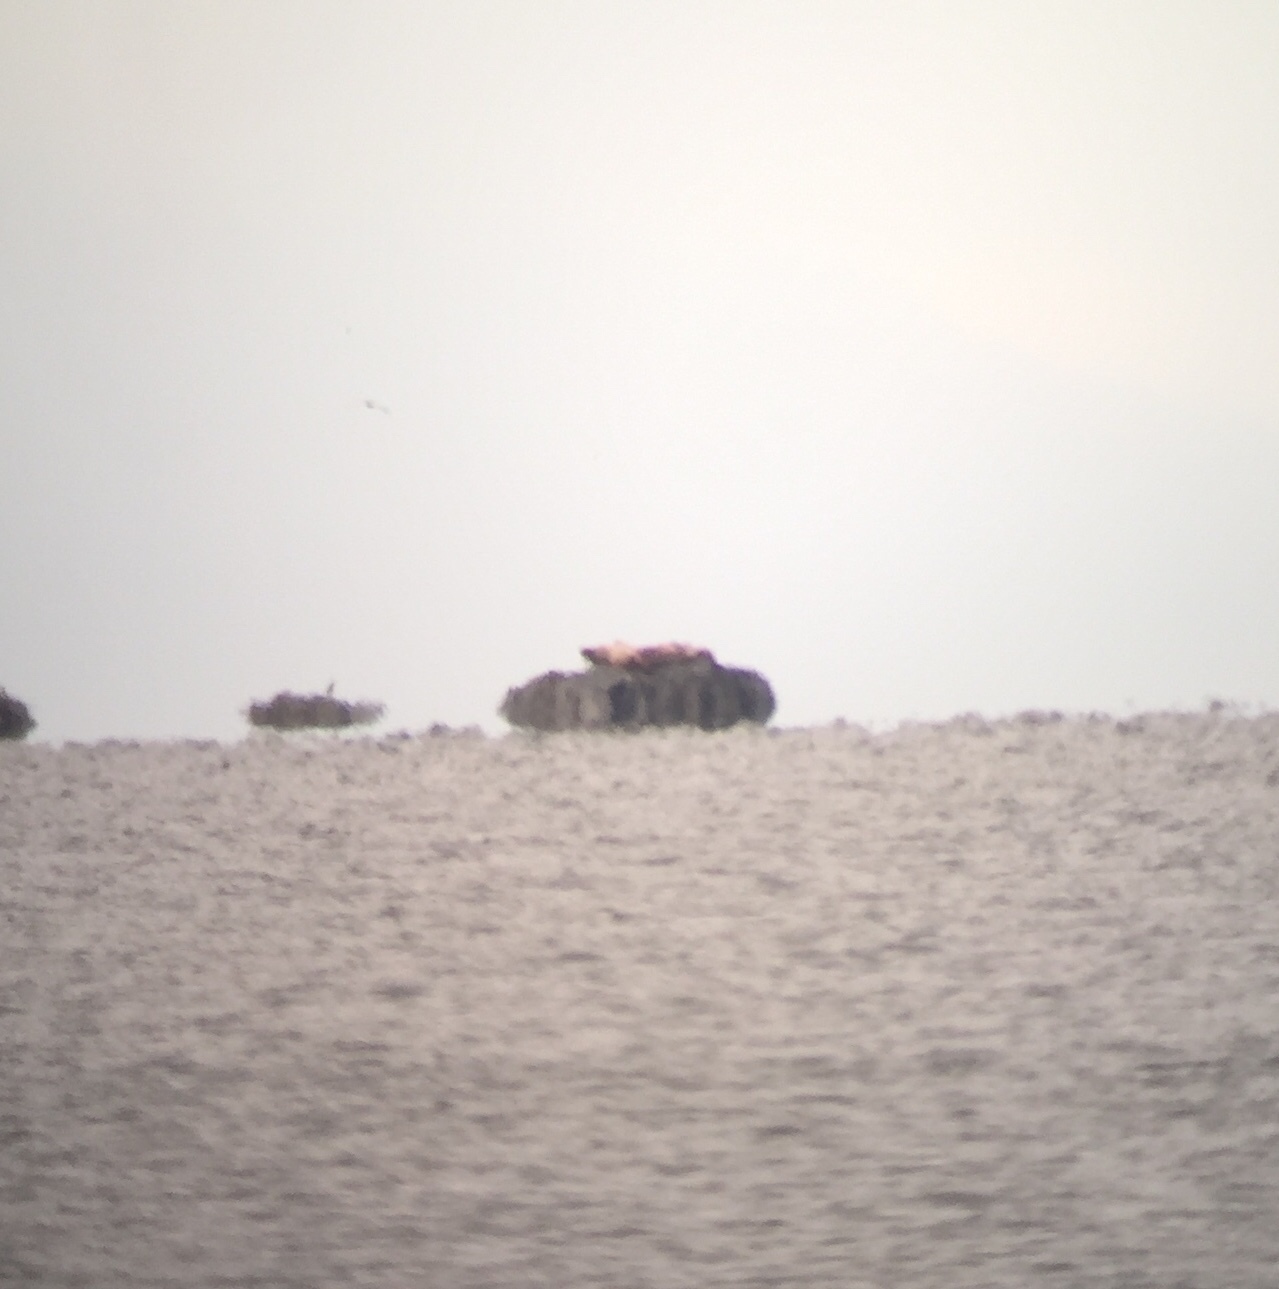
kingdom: Animalia
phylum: Chordata
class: Mammalia
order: Carnivora
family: Otariidae
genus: Eumetopias
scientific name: Eumetopias jubatus
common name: Steller sea lion
